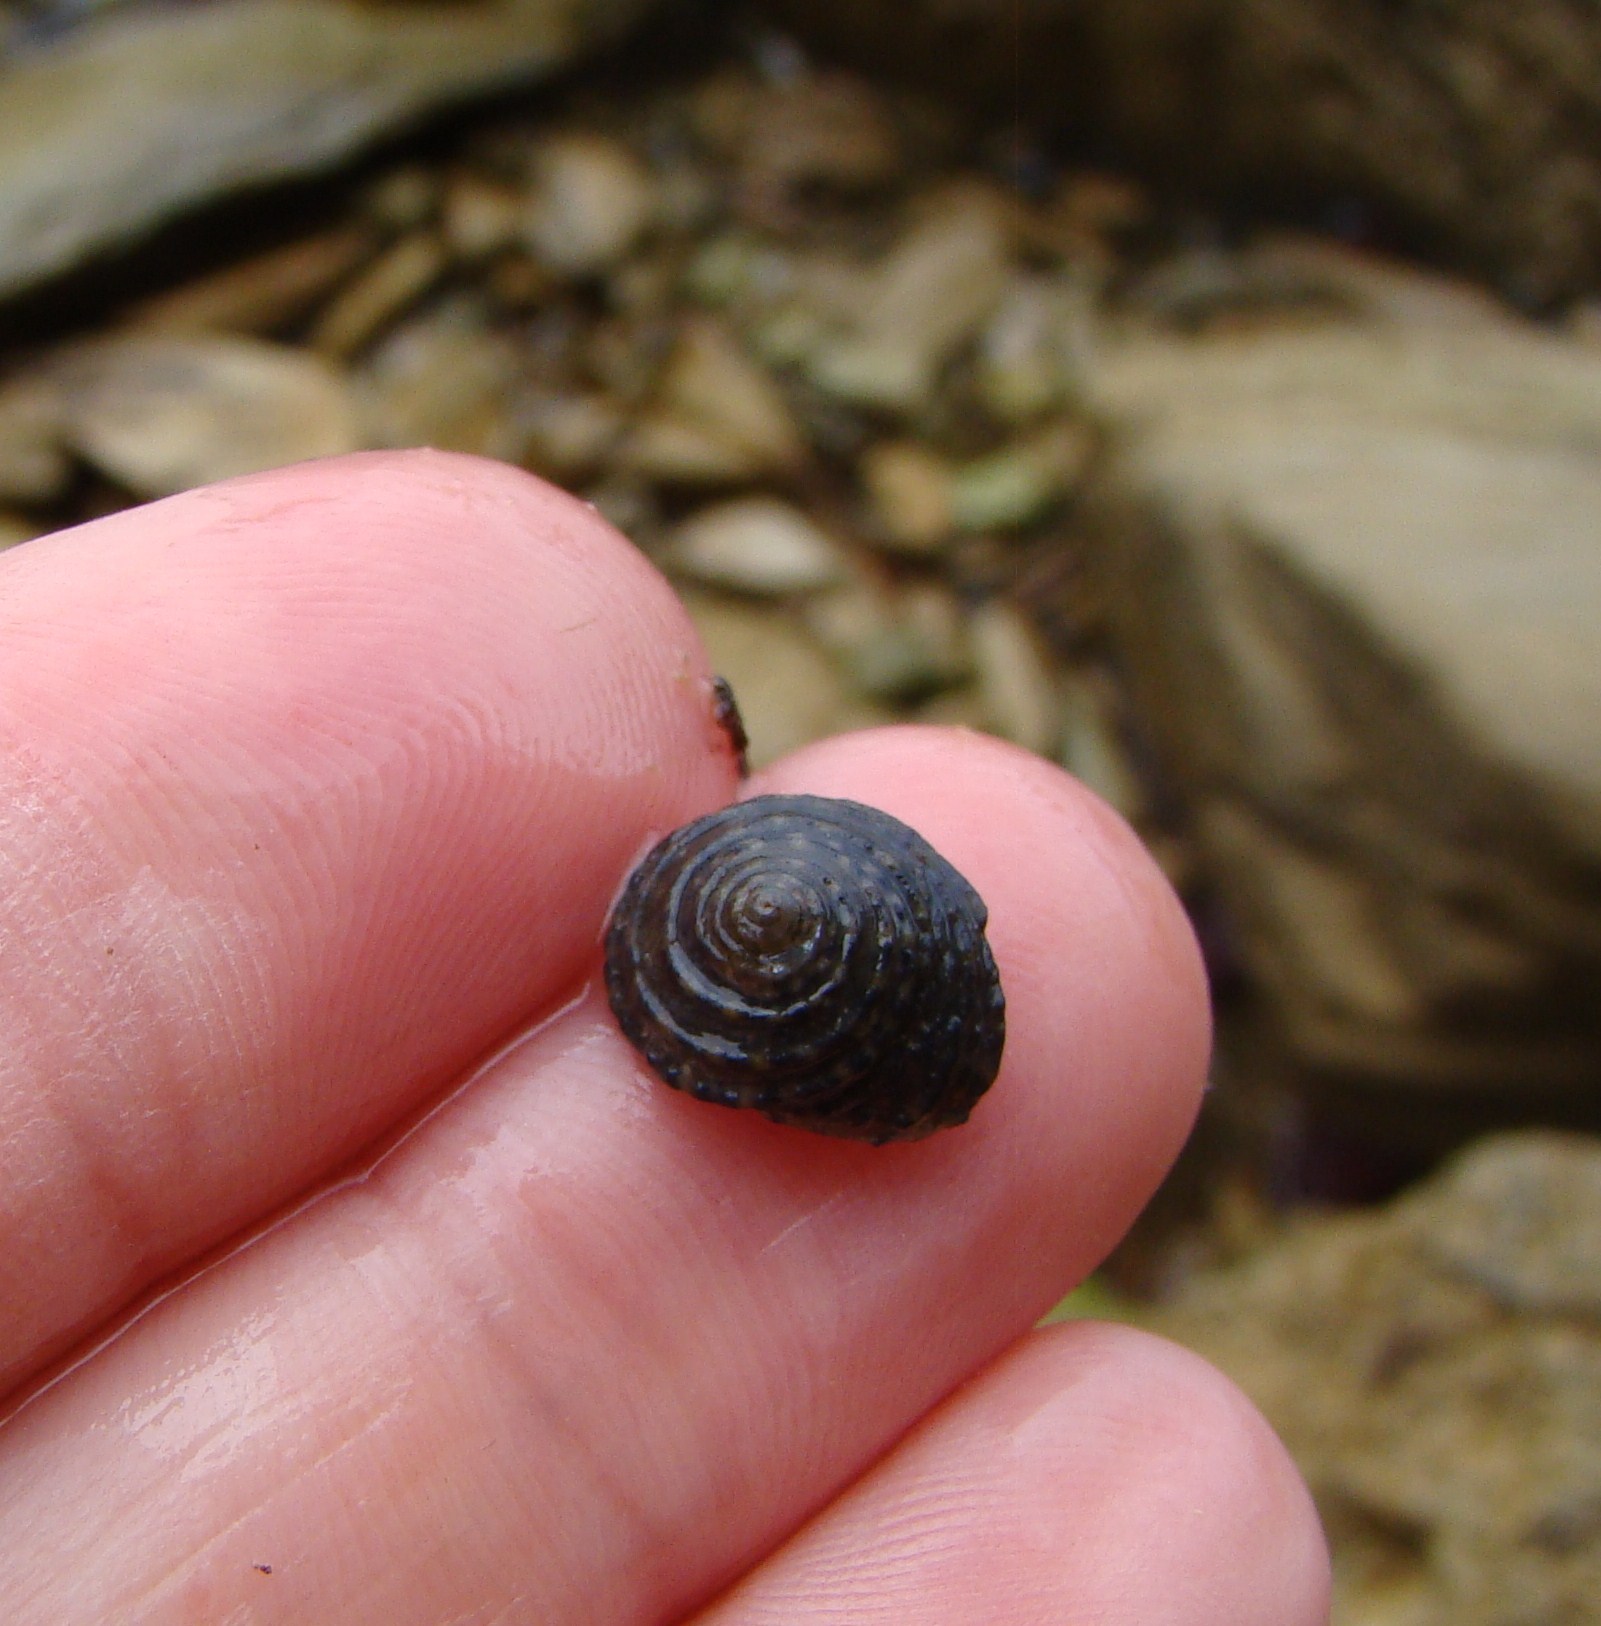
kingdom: Animalia
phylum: Mollusca
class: Gastropoda
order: Trochida
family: Trochidae
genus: Diloma
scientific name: Diloma bicanaliculatum
